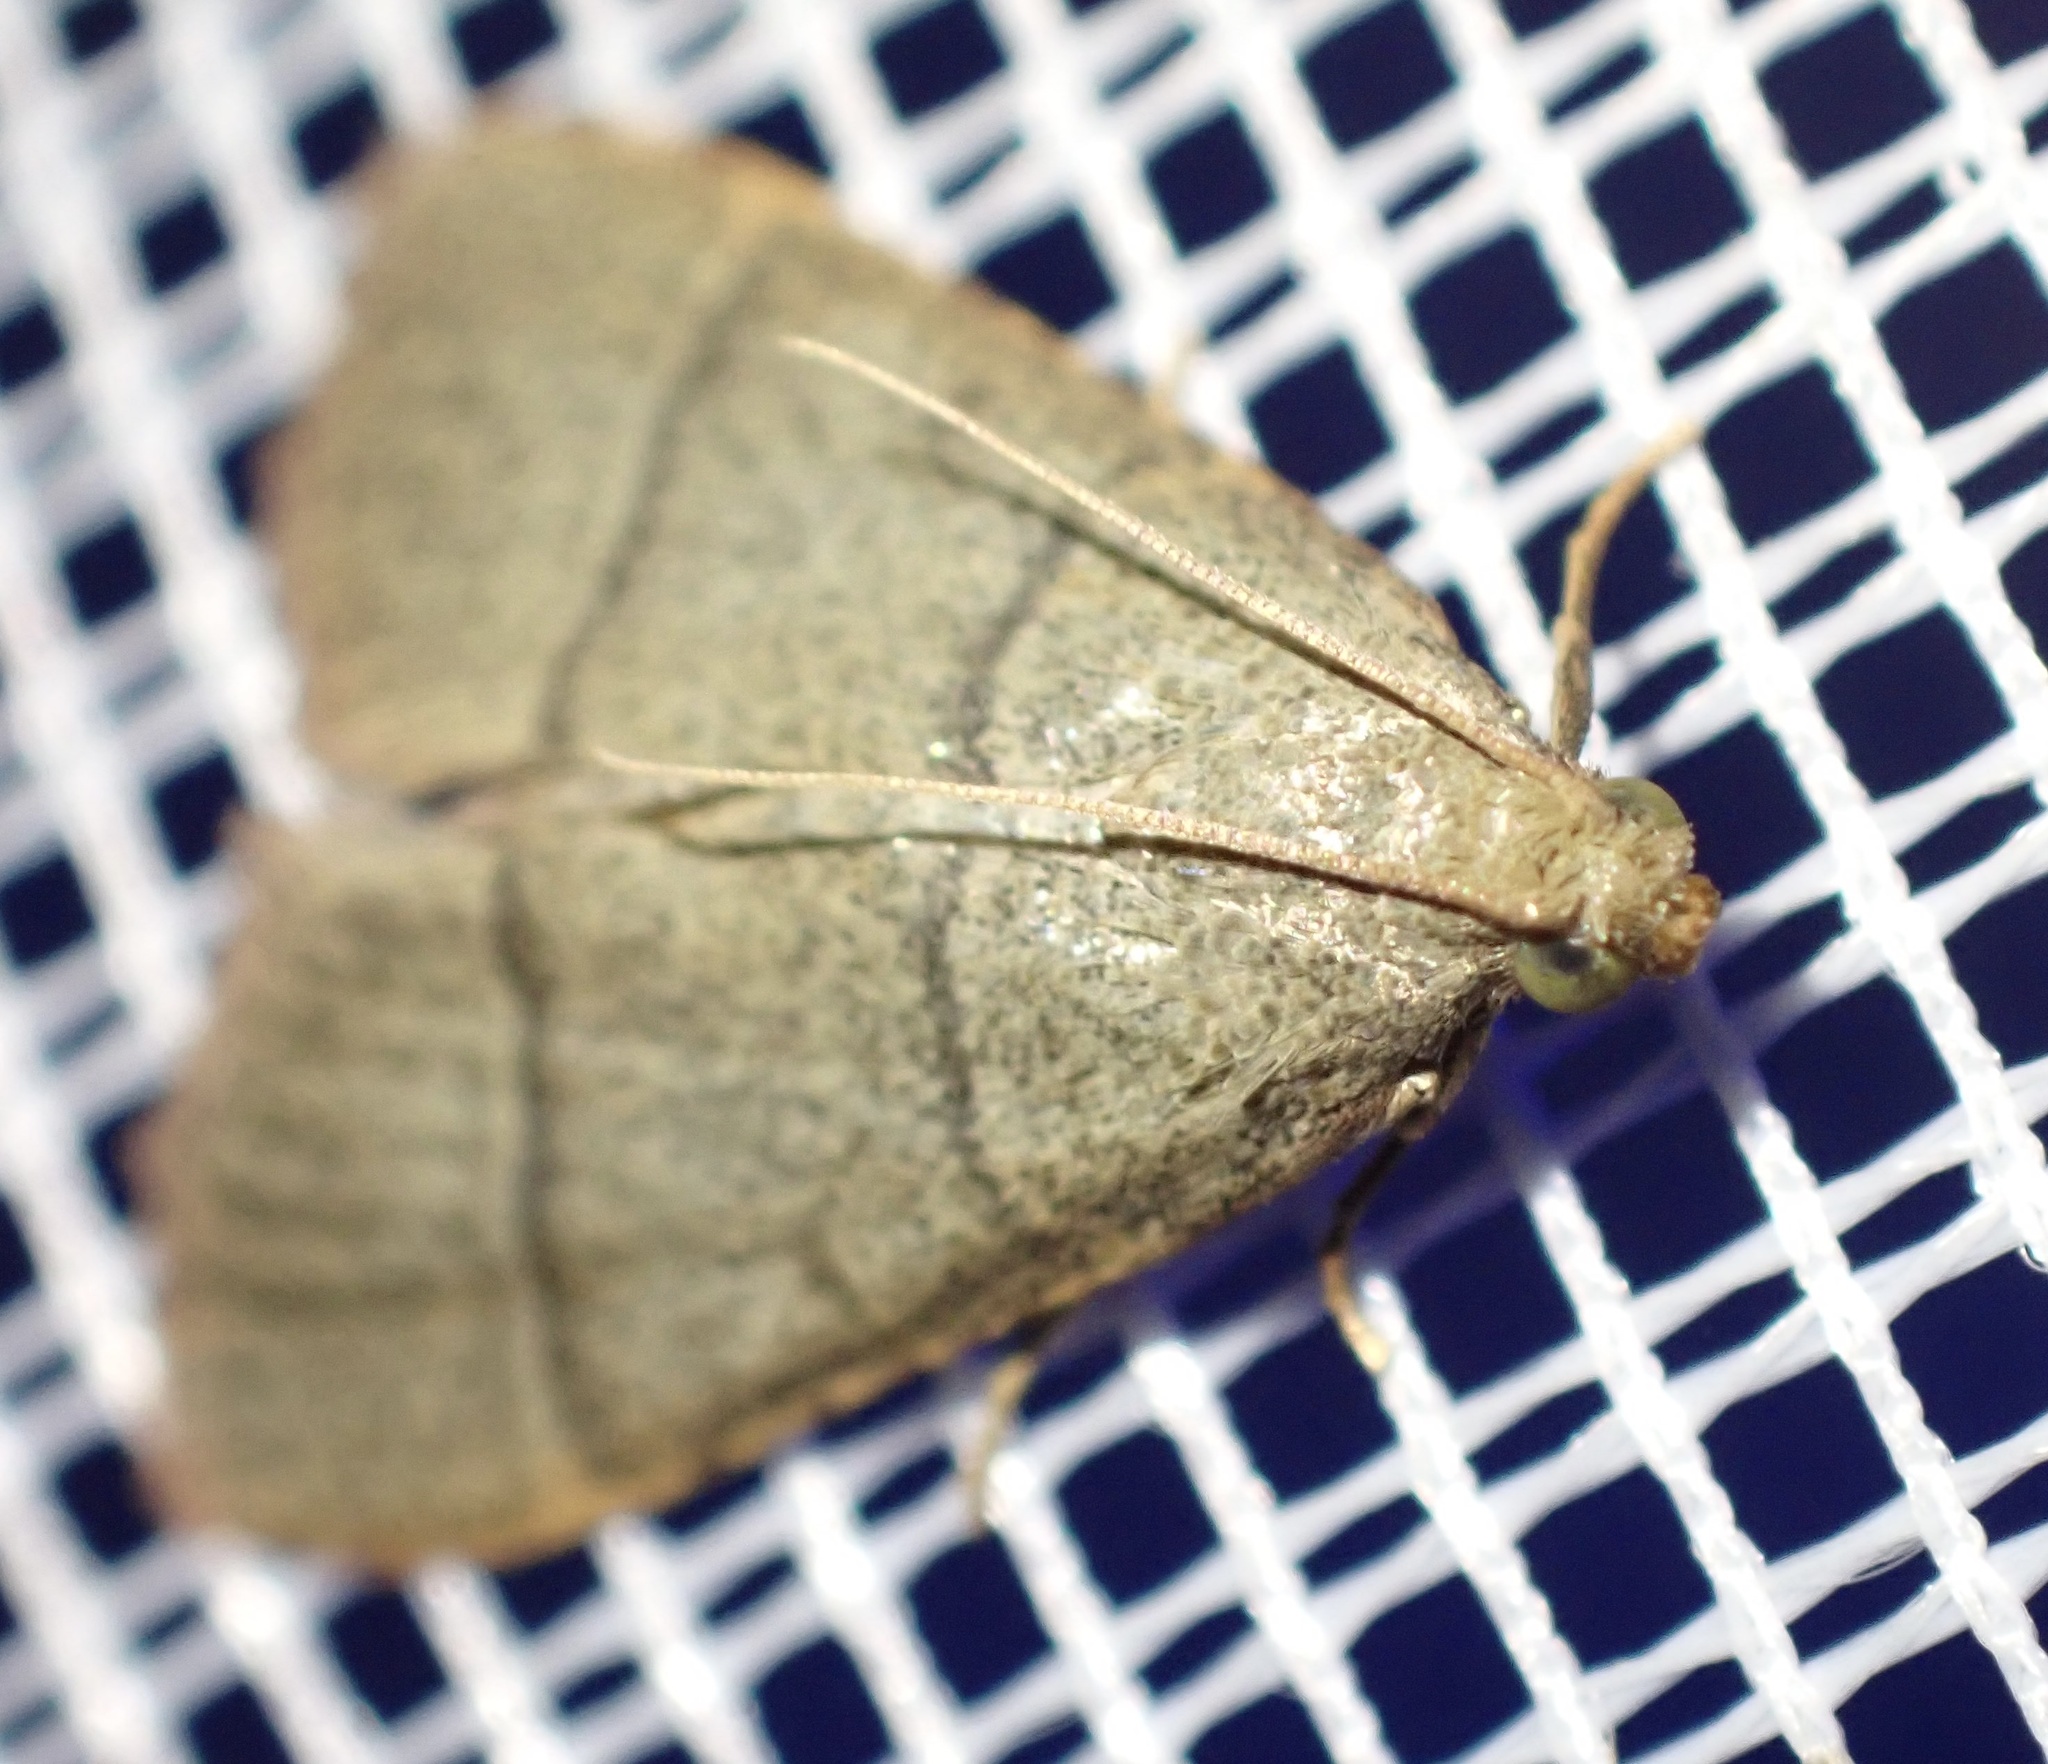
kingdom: Animalia
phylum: Arthropoda
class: Insecta
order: Lepidoptera
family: Pyralidae
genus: Hypsopygia
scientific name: Hypsopygia nostralis
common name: Southern hayworm moth
